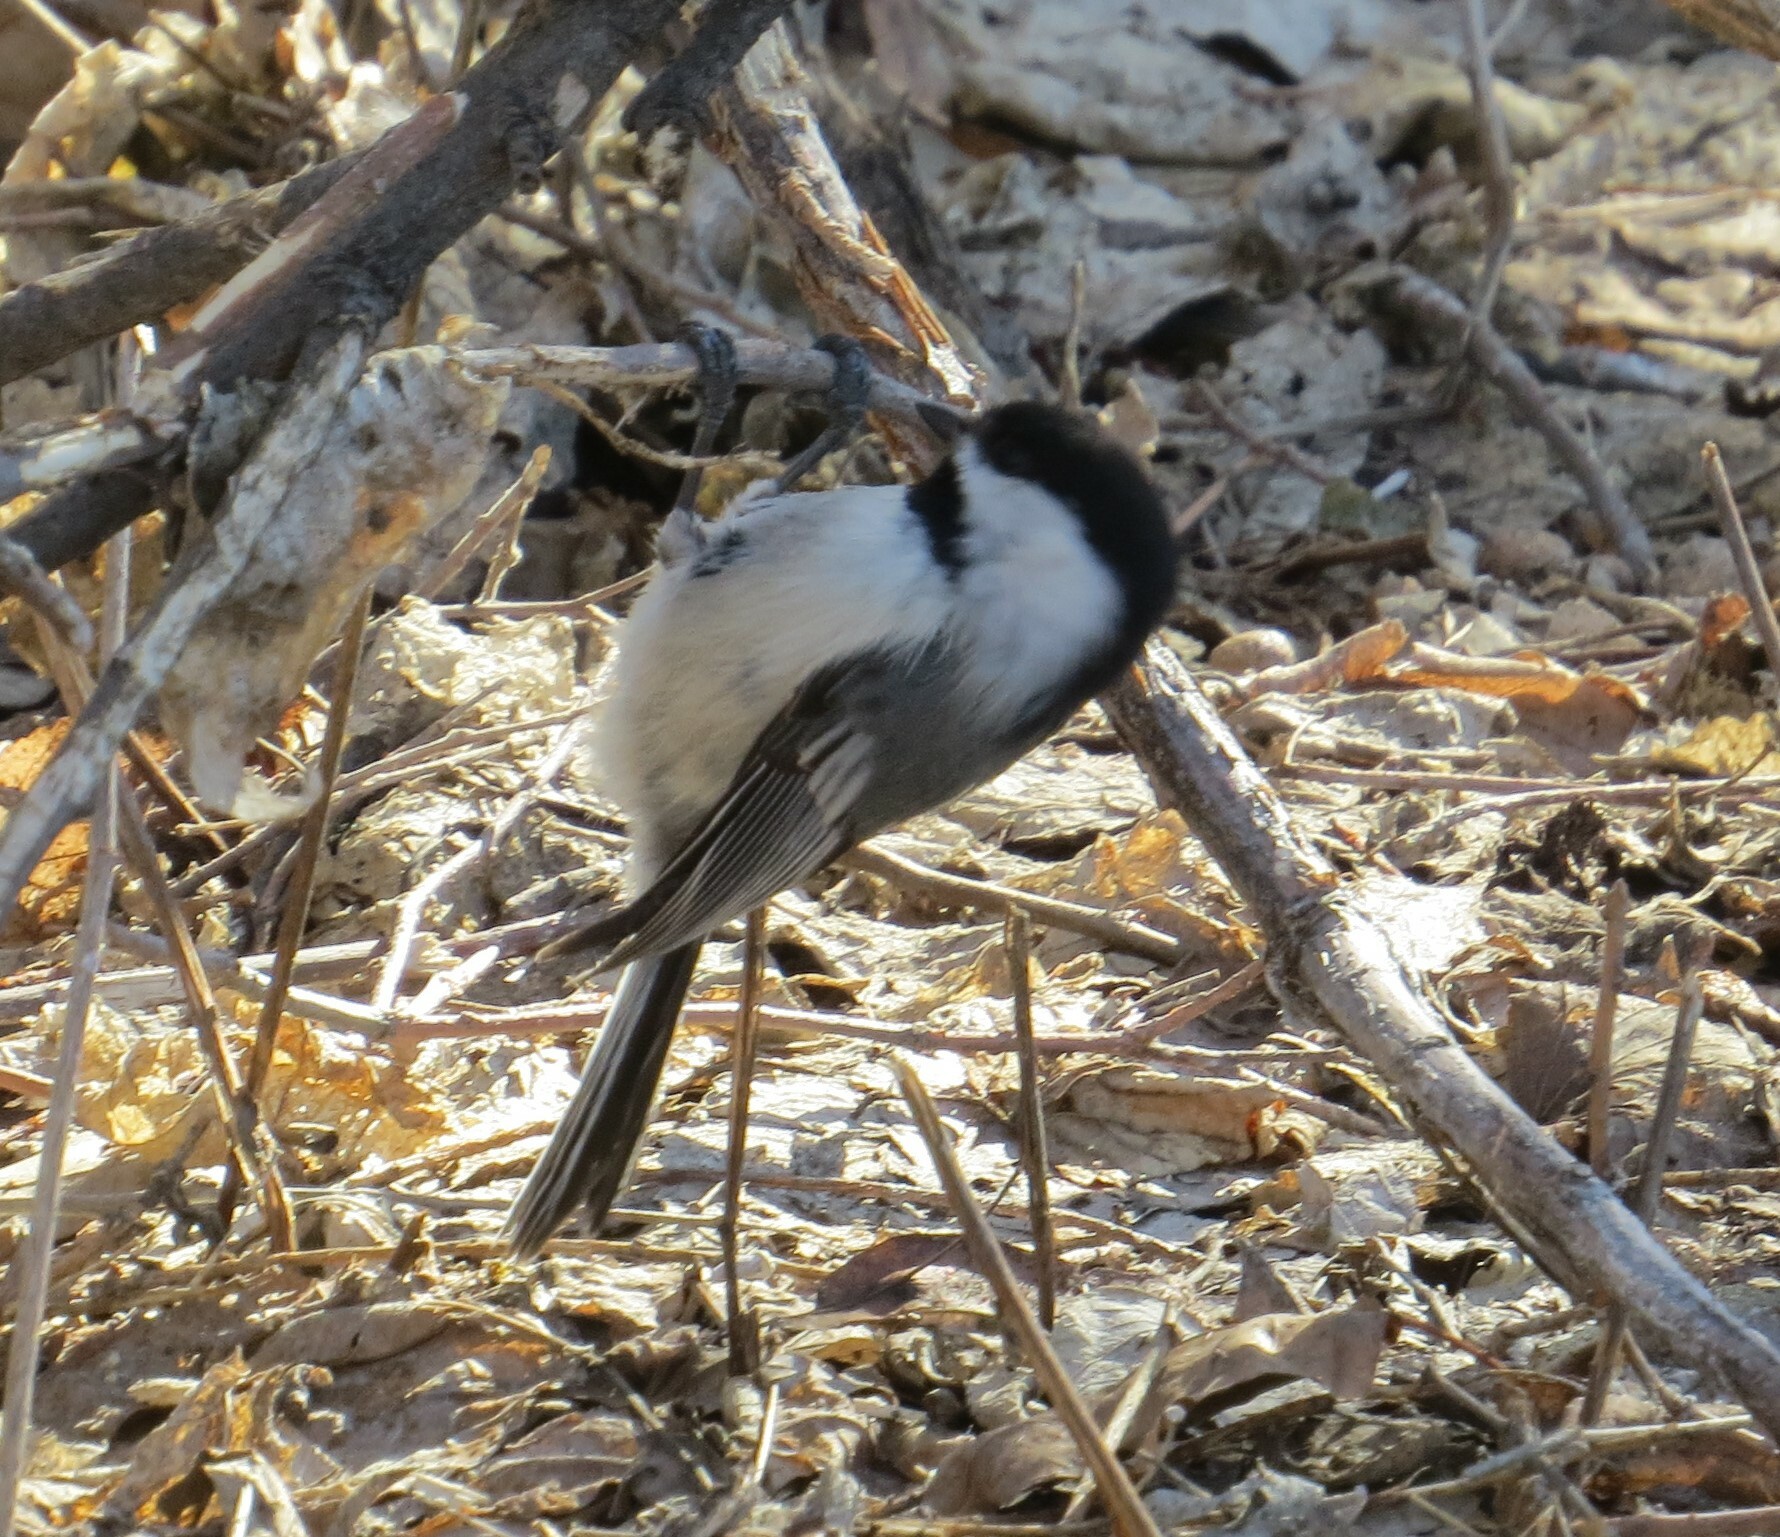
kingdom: Animalia
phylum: Chordata
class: Aves
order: Passeriformes
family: Paridae
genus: Poecile
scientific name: Poecile atricapillus
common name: Black-capped chickadee
